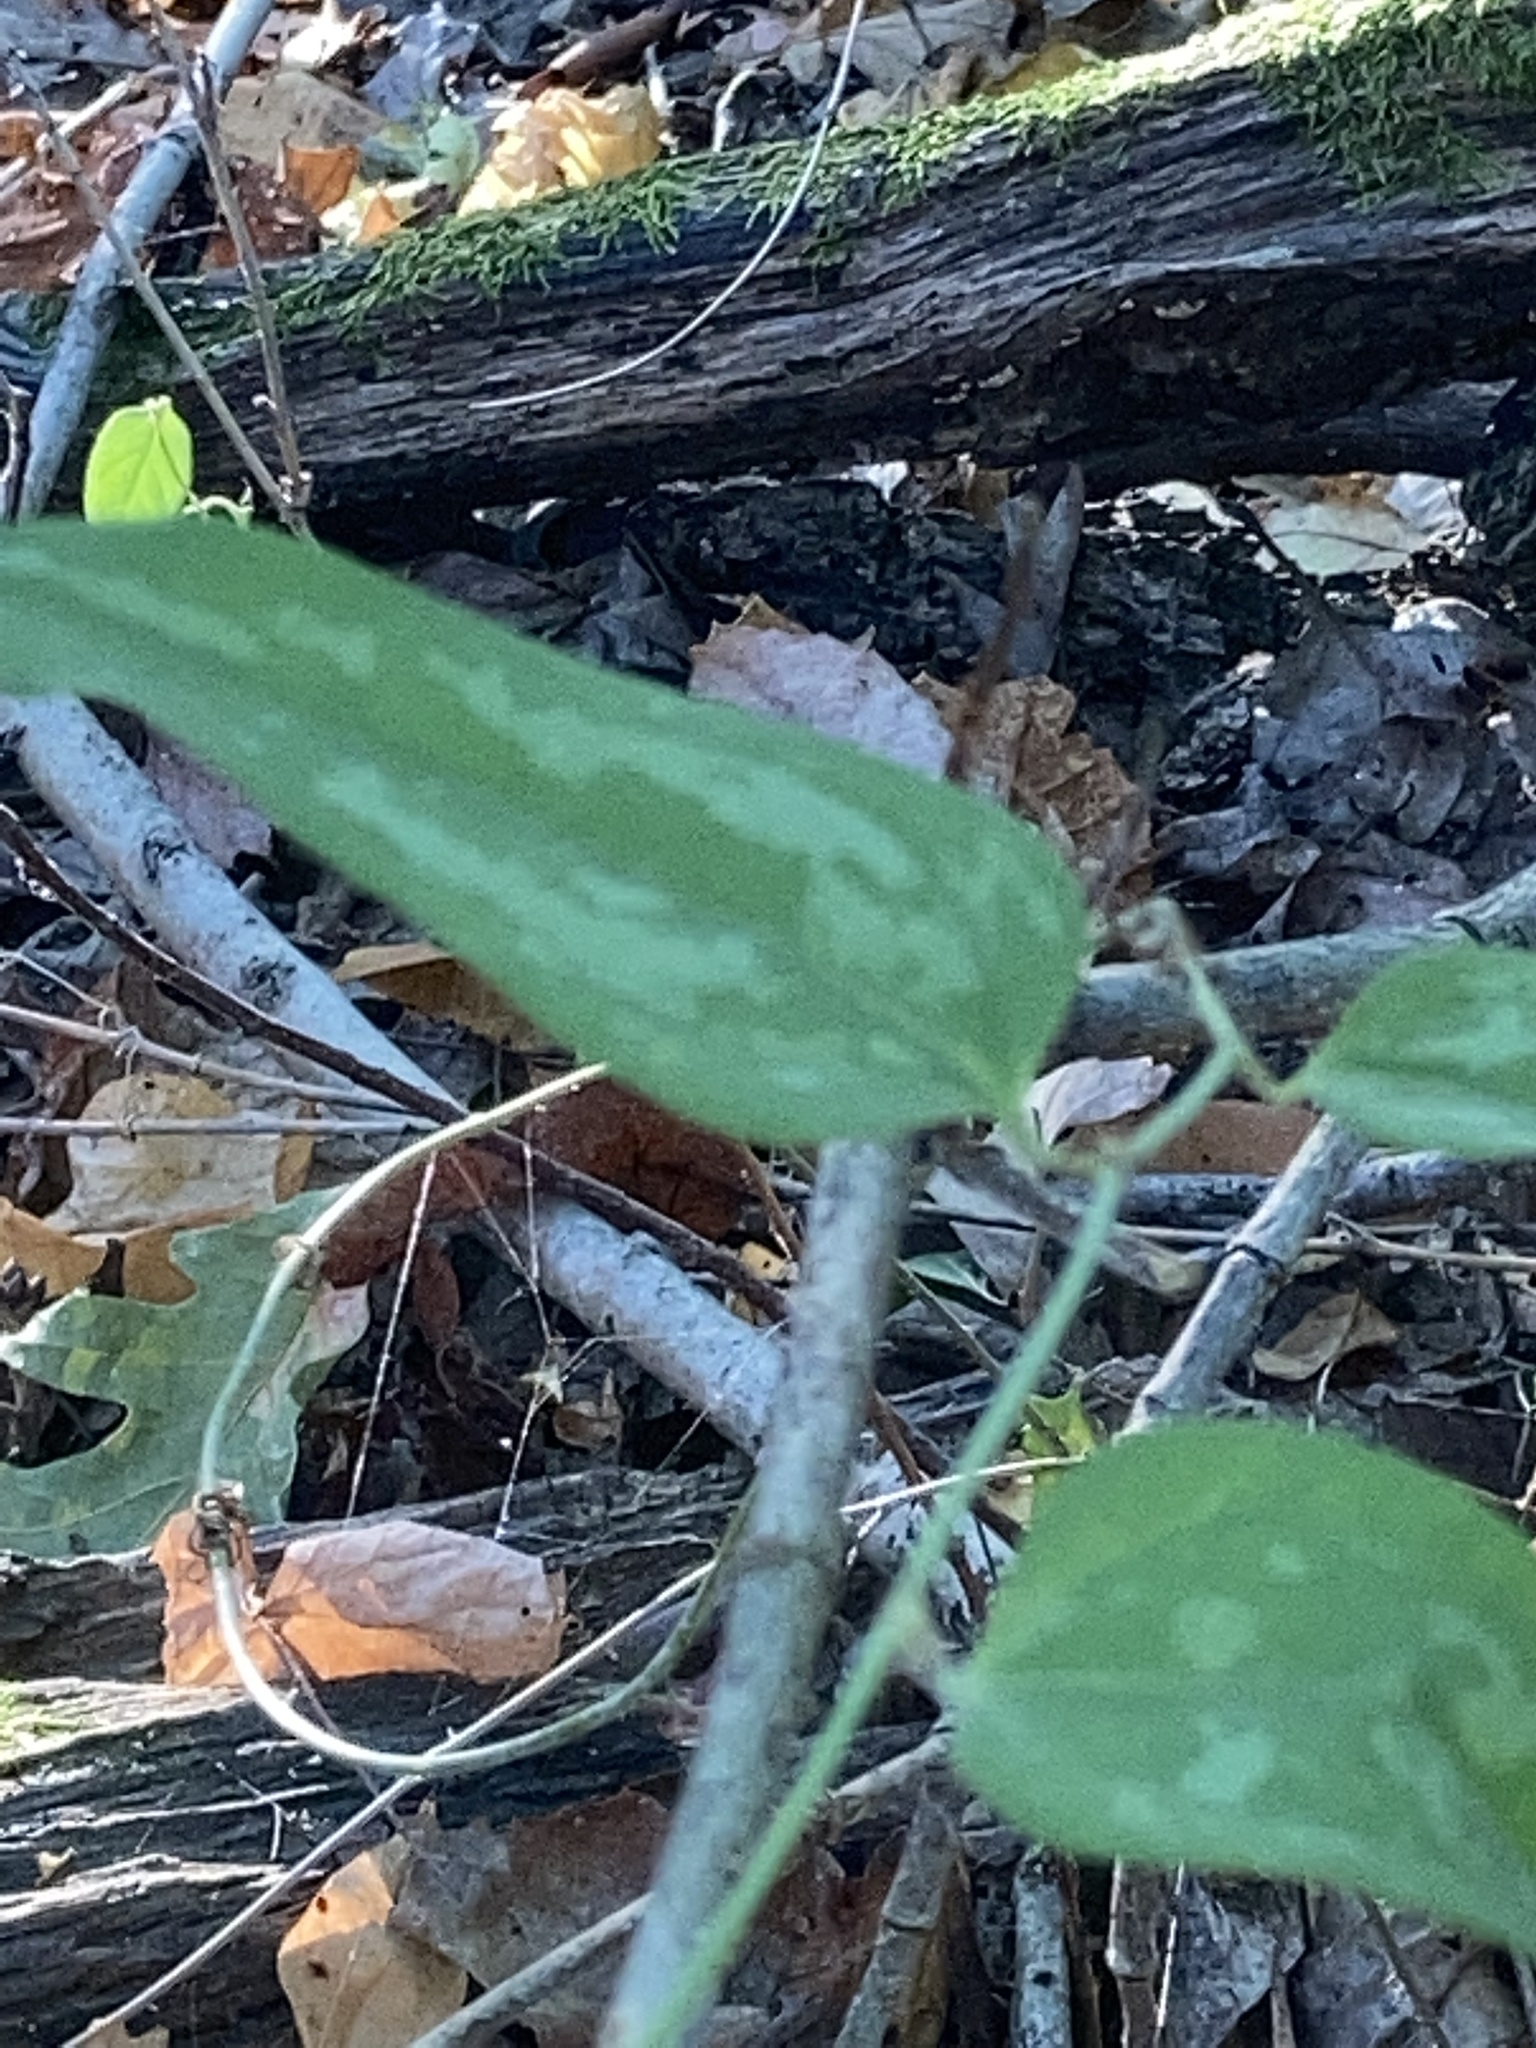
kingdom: Plantae
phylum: Tracheophyta
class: Liliopsida
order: Liliales
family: Smilacaceae
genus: Smilax
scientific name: Smilax glauca
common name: Cat greenbrier
